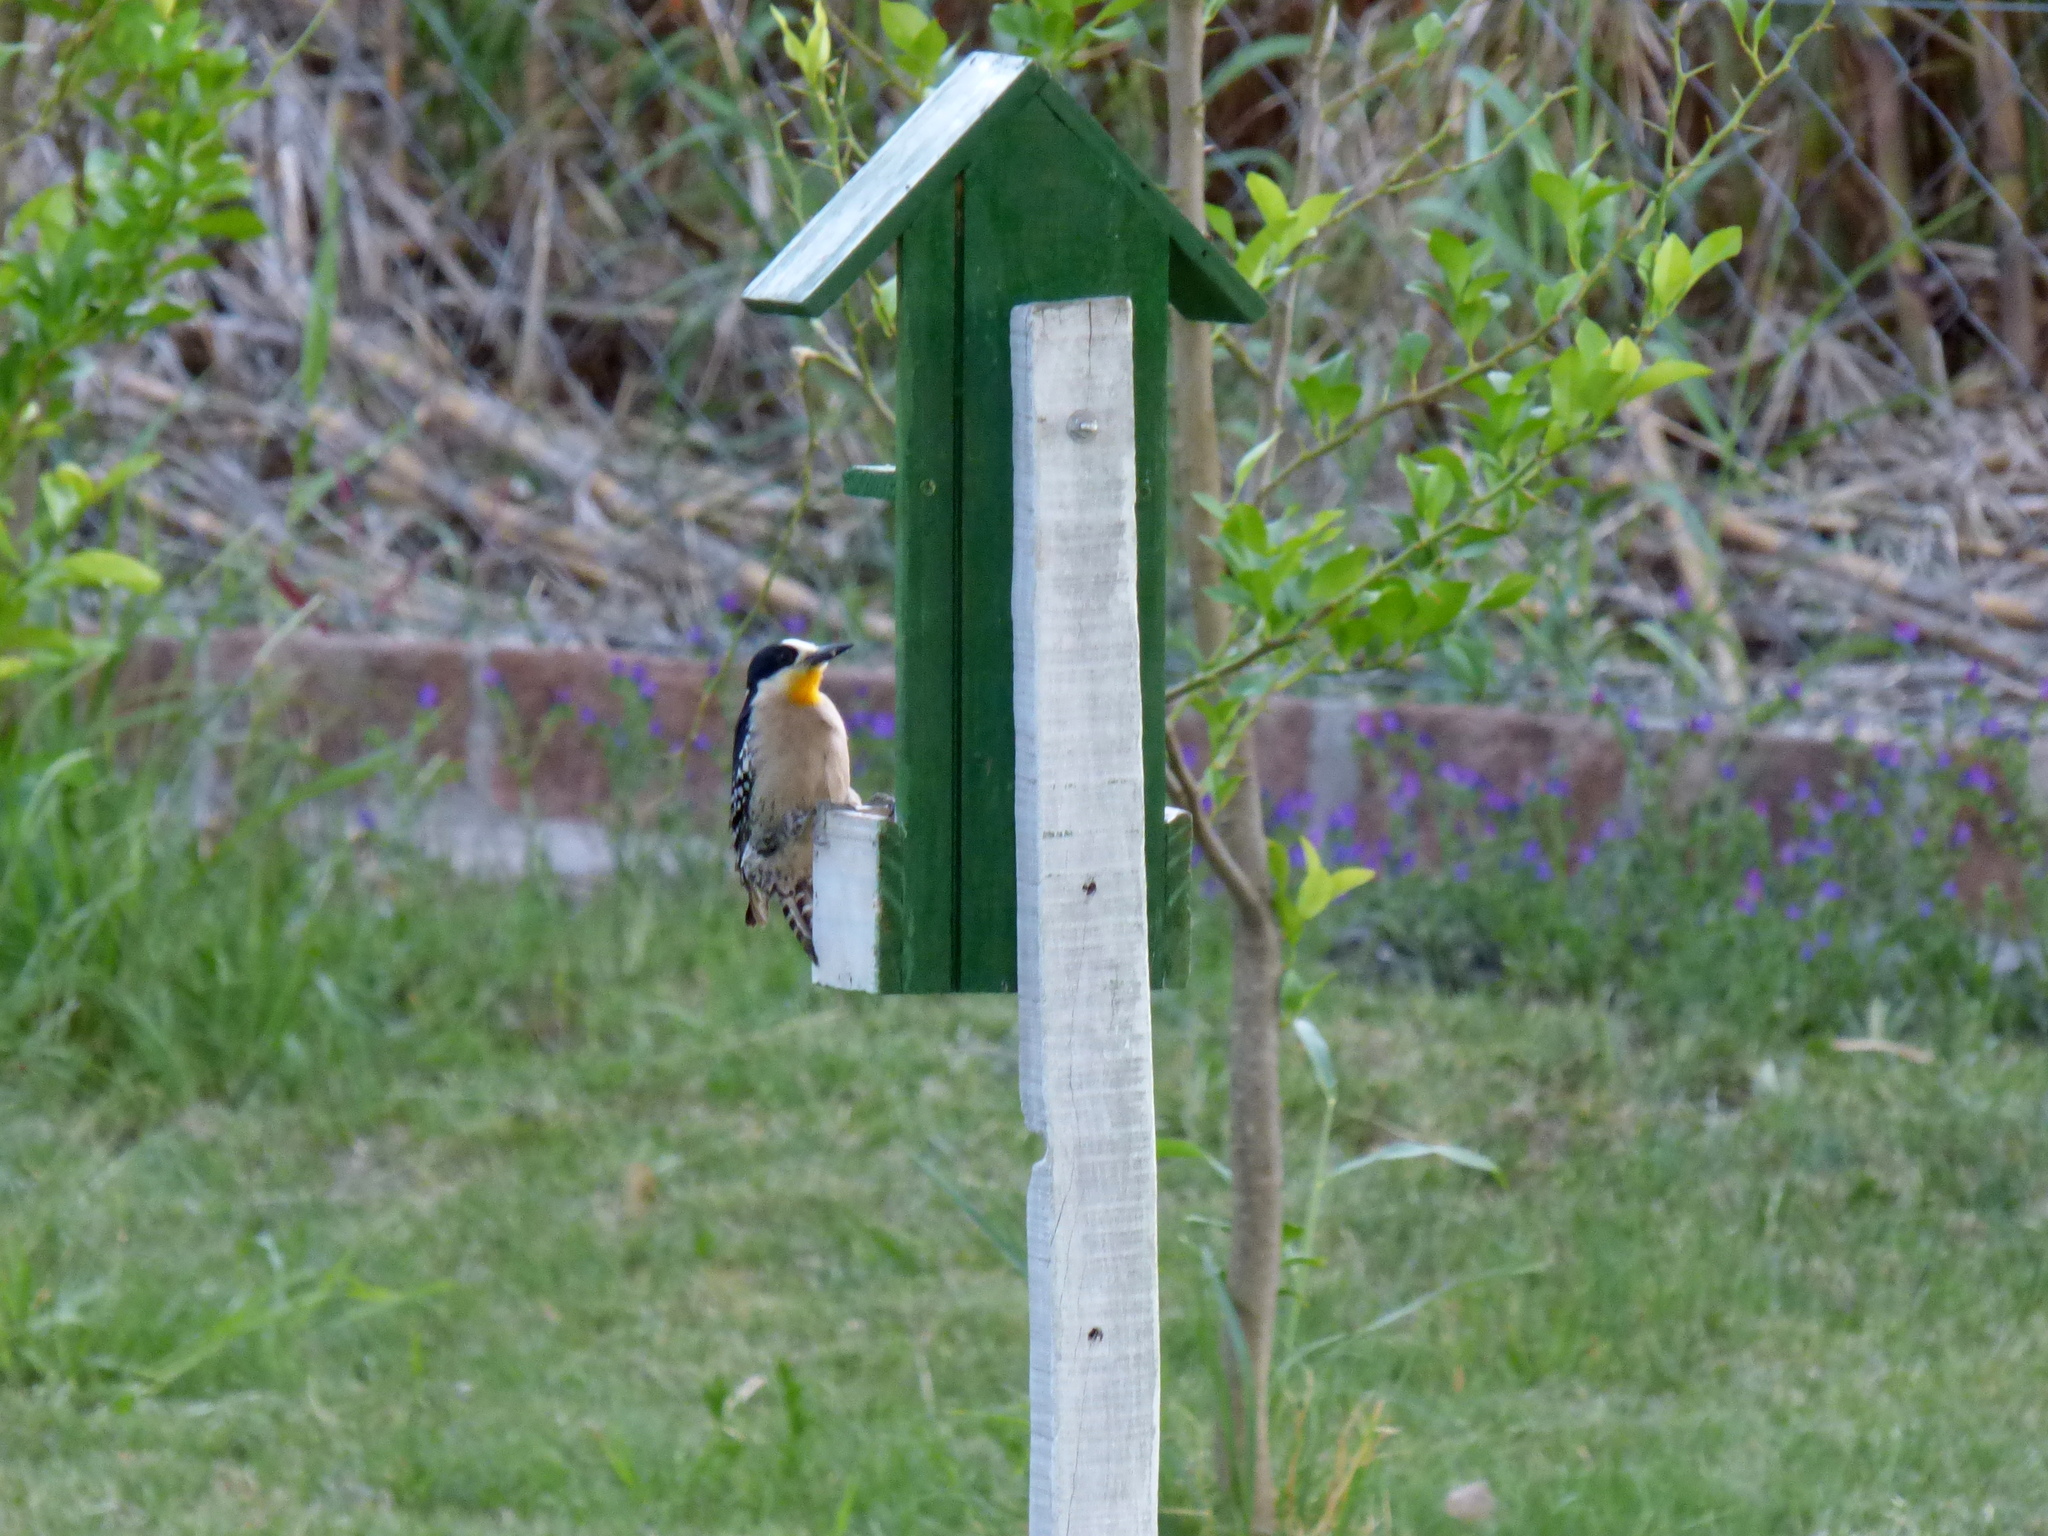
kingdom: Animalia
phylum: Chordata
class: Aves
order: Piciformes
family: Picidae
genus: Melanerpes
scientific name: Melanerpes cactorum
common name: White-fronted woodpecker
